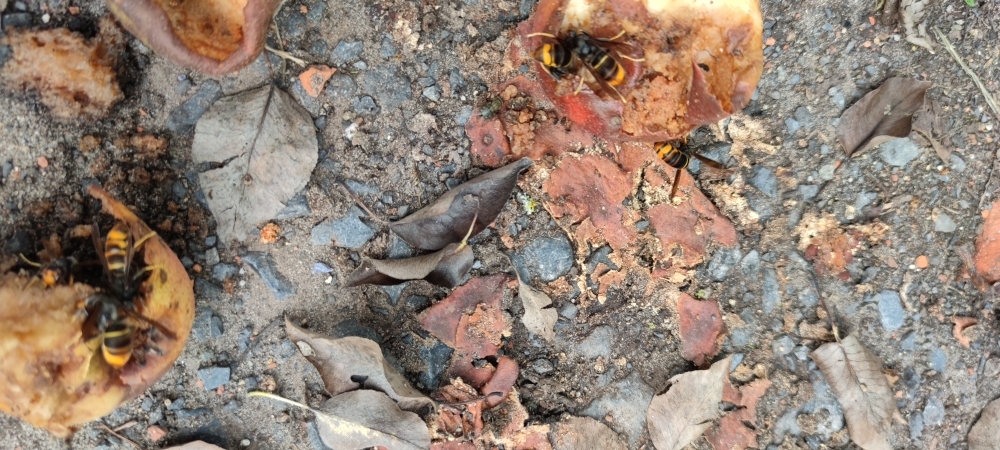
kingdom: Animalia
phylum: Arthropoda
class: Insecta
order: Hymenoptera
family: Vespidae
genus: Vespa
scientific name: Vespa velutina
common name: Asian hornet
